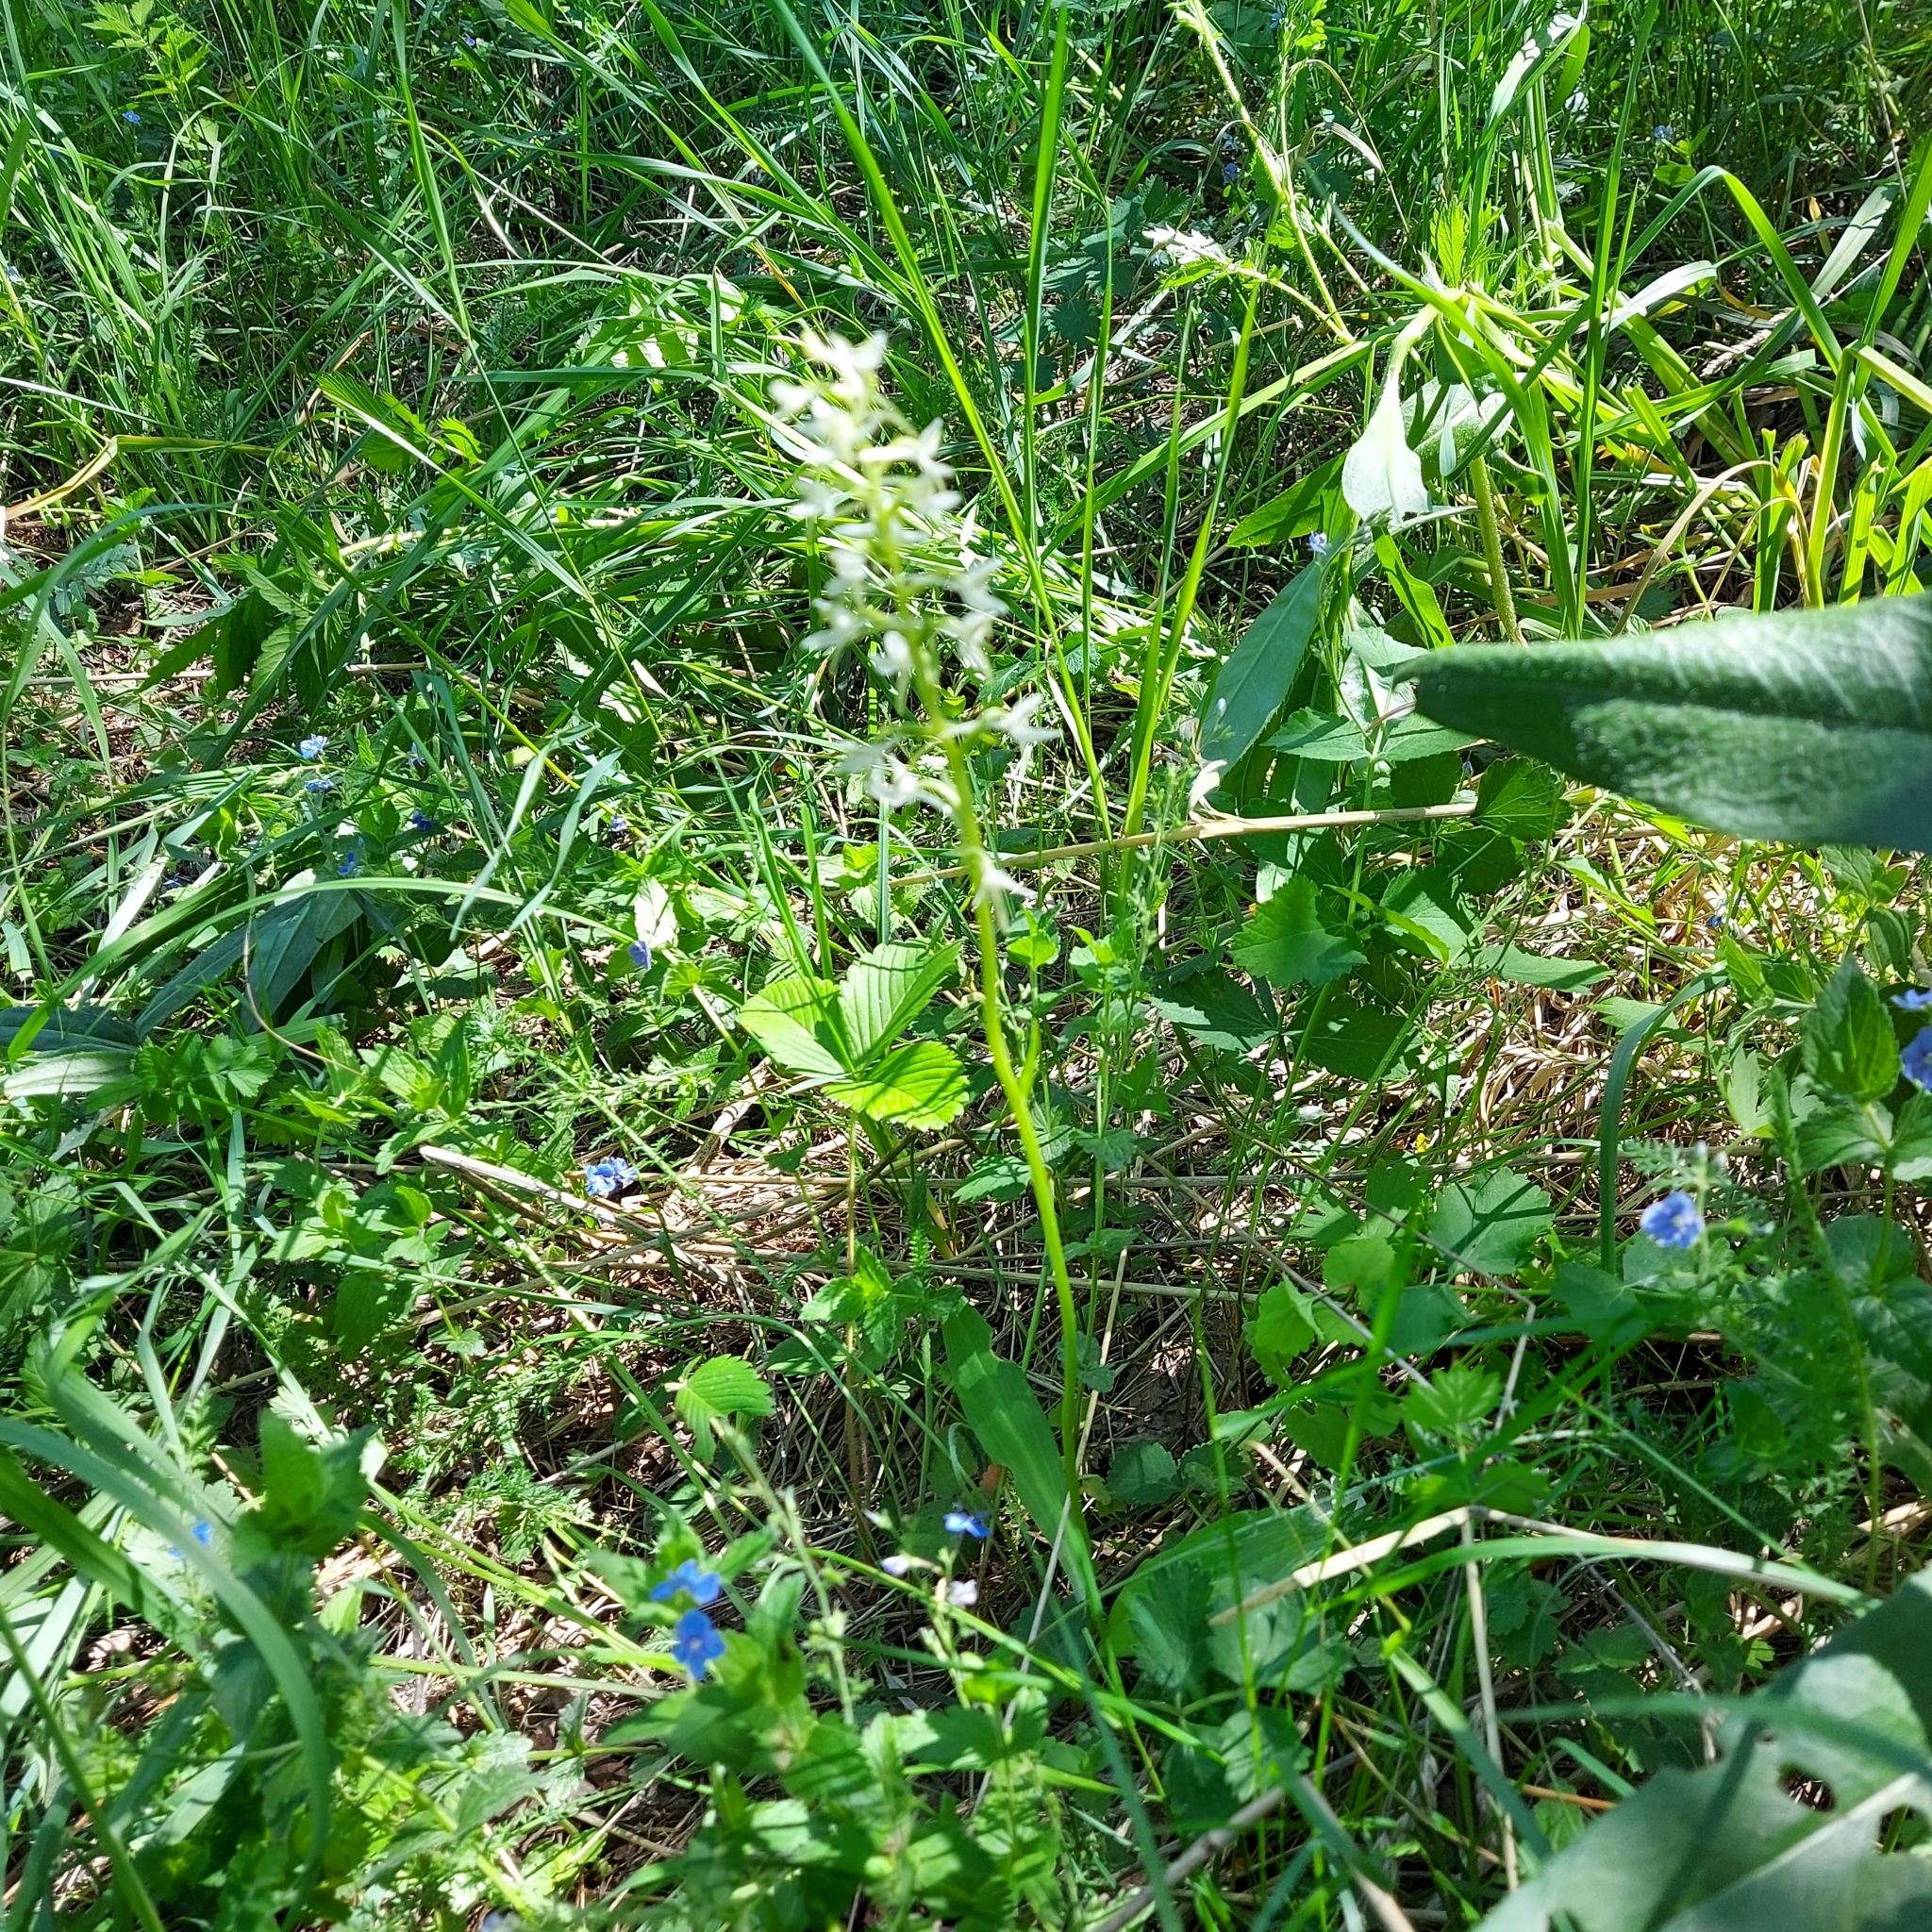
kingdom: Plantae
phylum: Tracheophyta
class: Liliopsida
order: Asparagales
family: Orchidaceae
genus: Platanthera
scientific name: Platanthera bifolia
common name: Lesser butterfly-orchid
